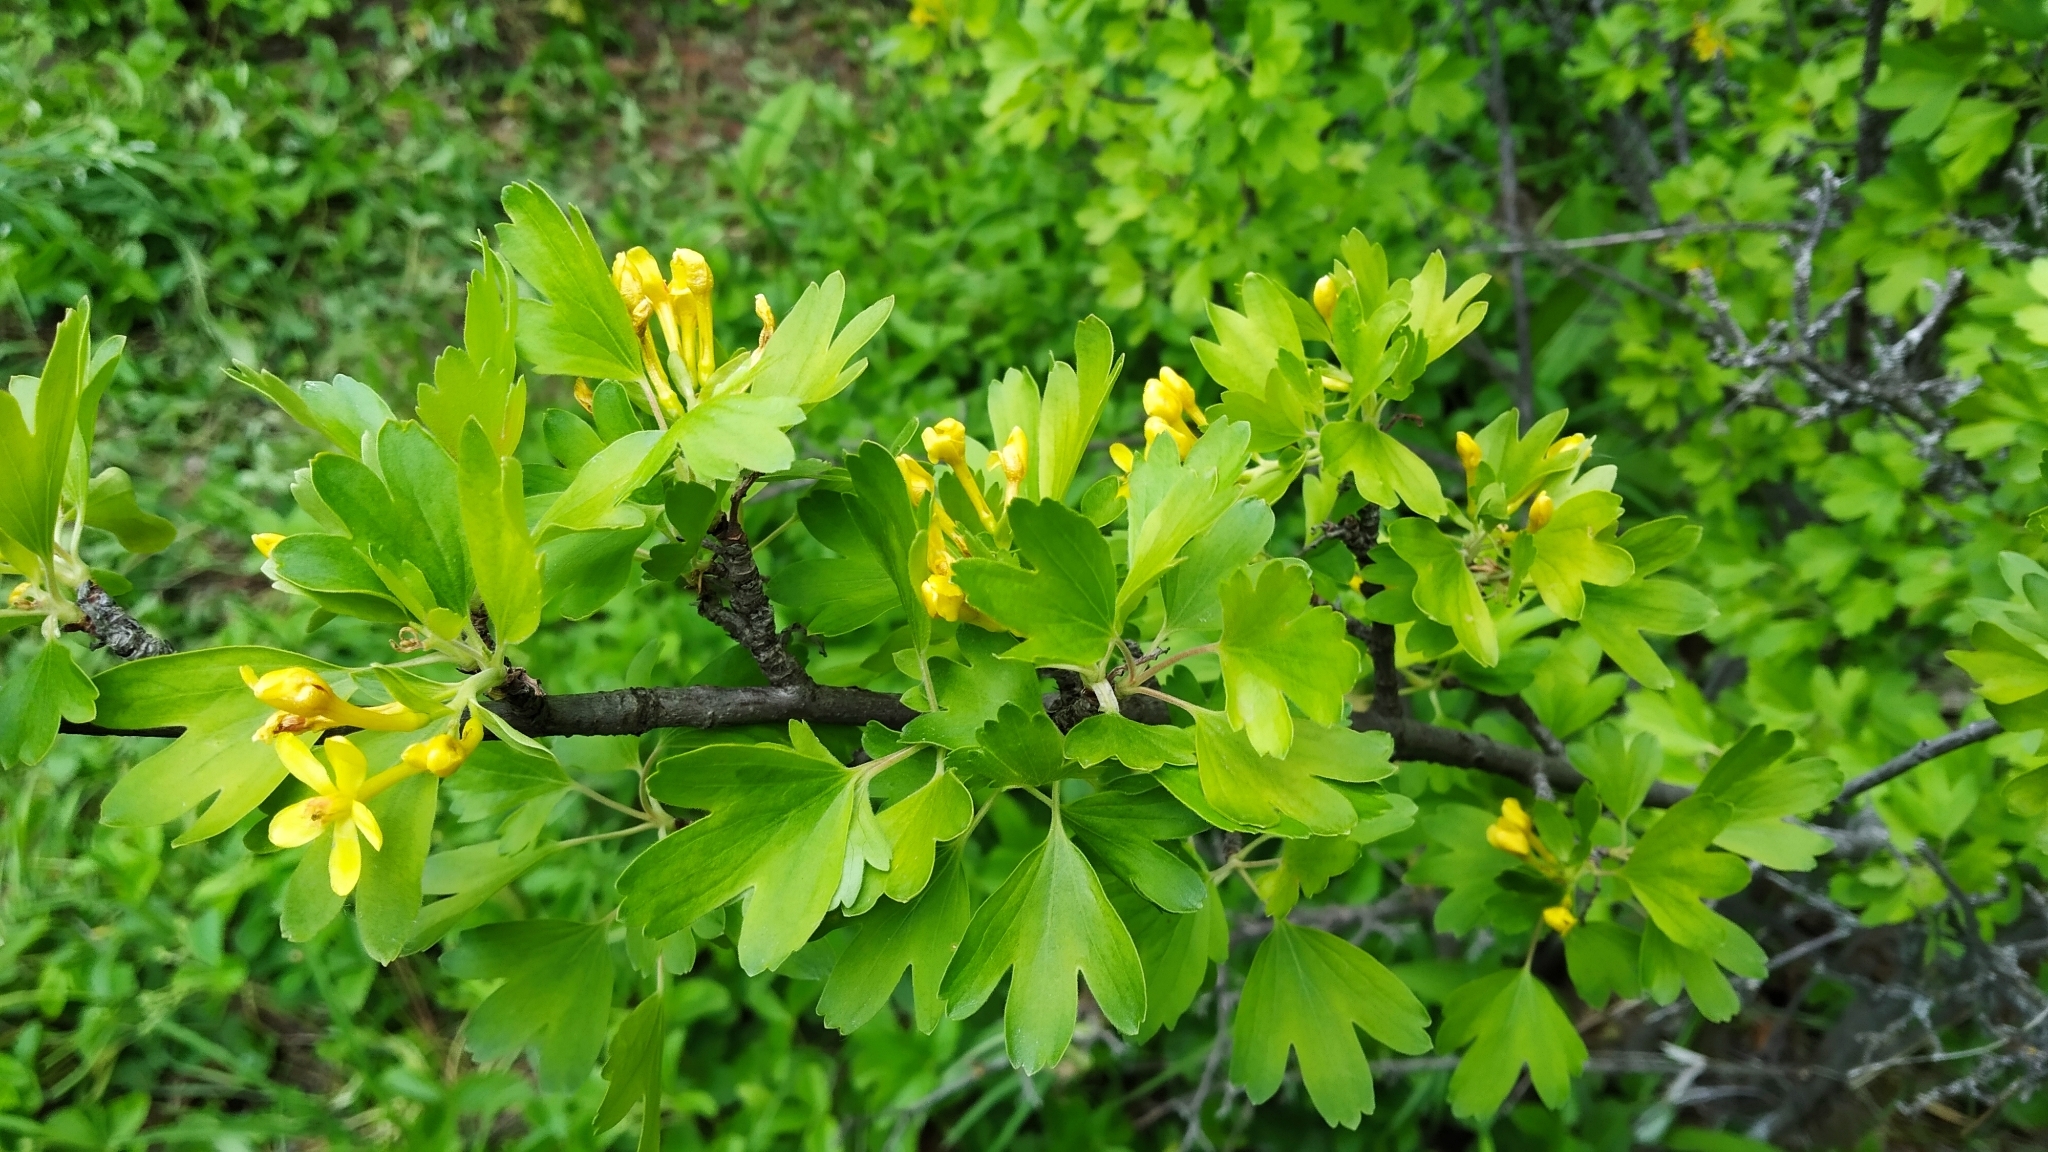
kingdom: Plantae
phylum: Tracheophyta
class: Magnoliopsida
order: Saxifragales
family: Grossulariaceae
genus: Ribes
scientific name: Ribes aureum
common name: Golden currant
